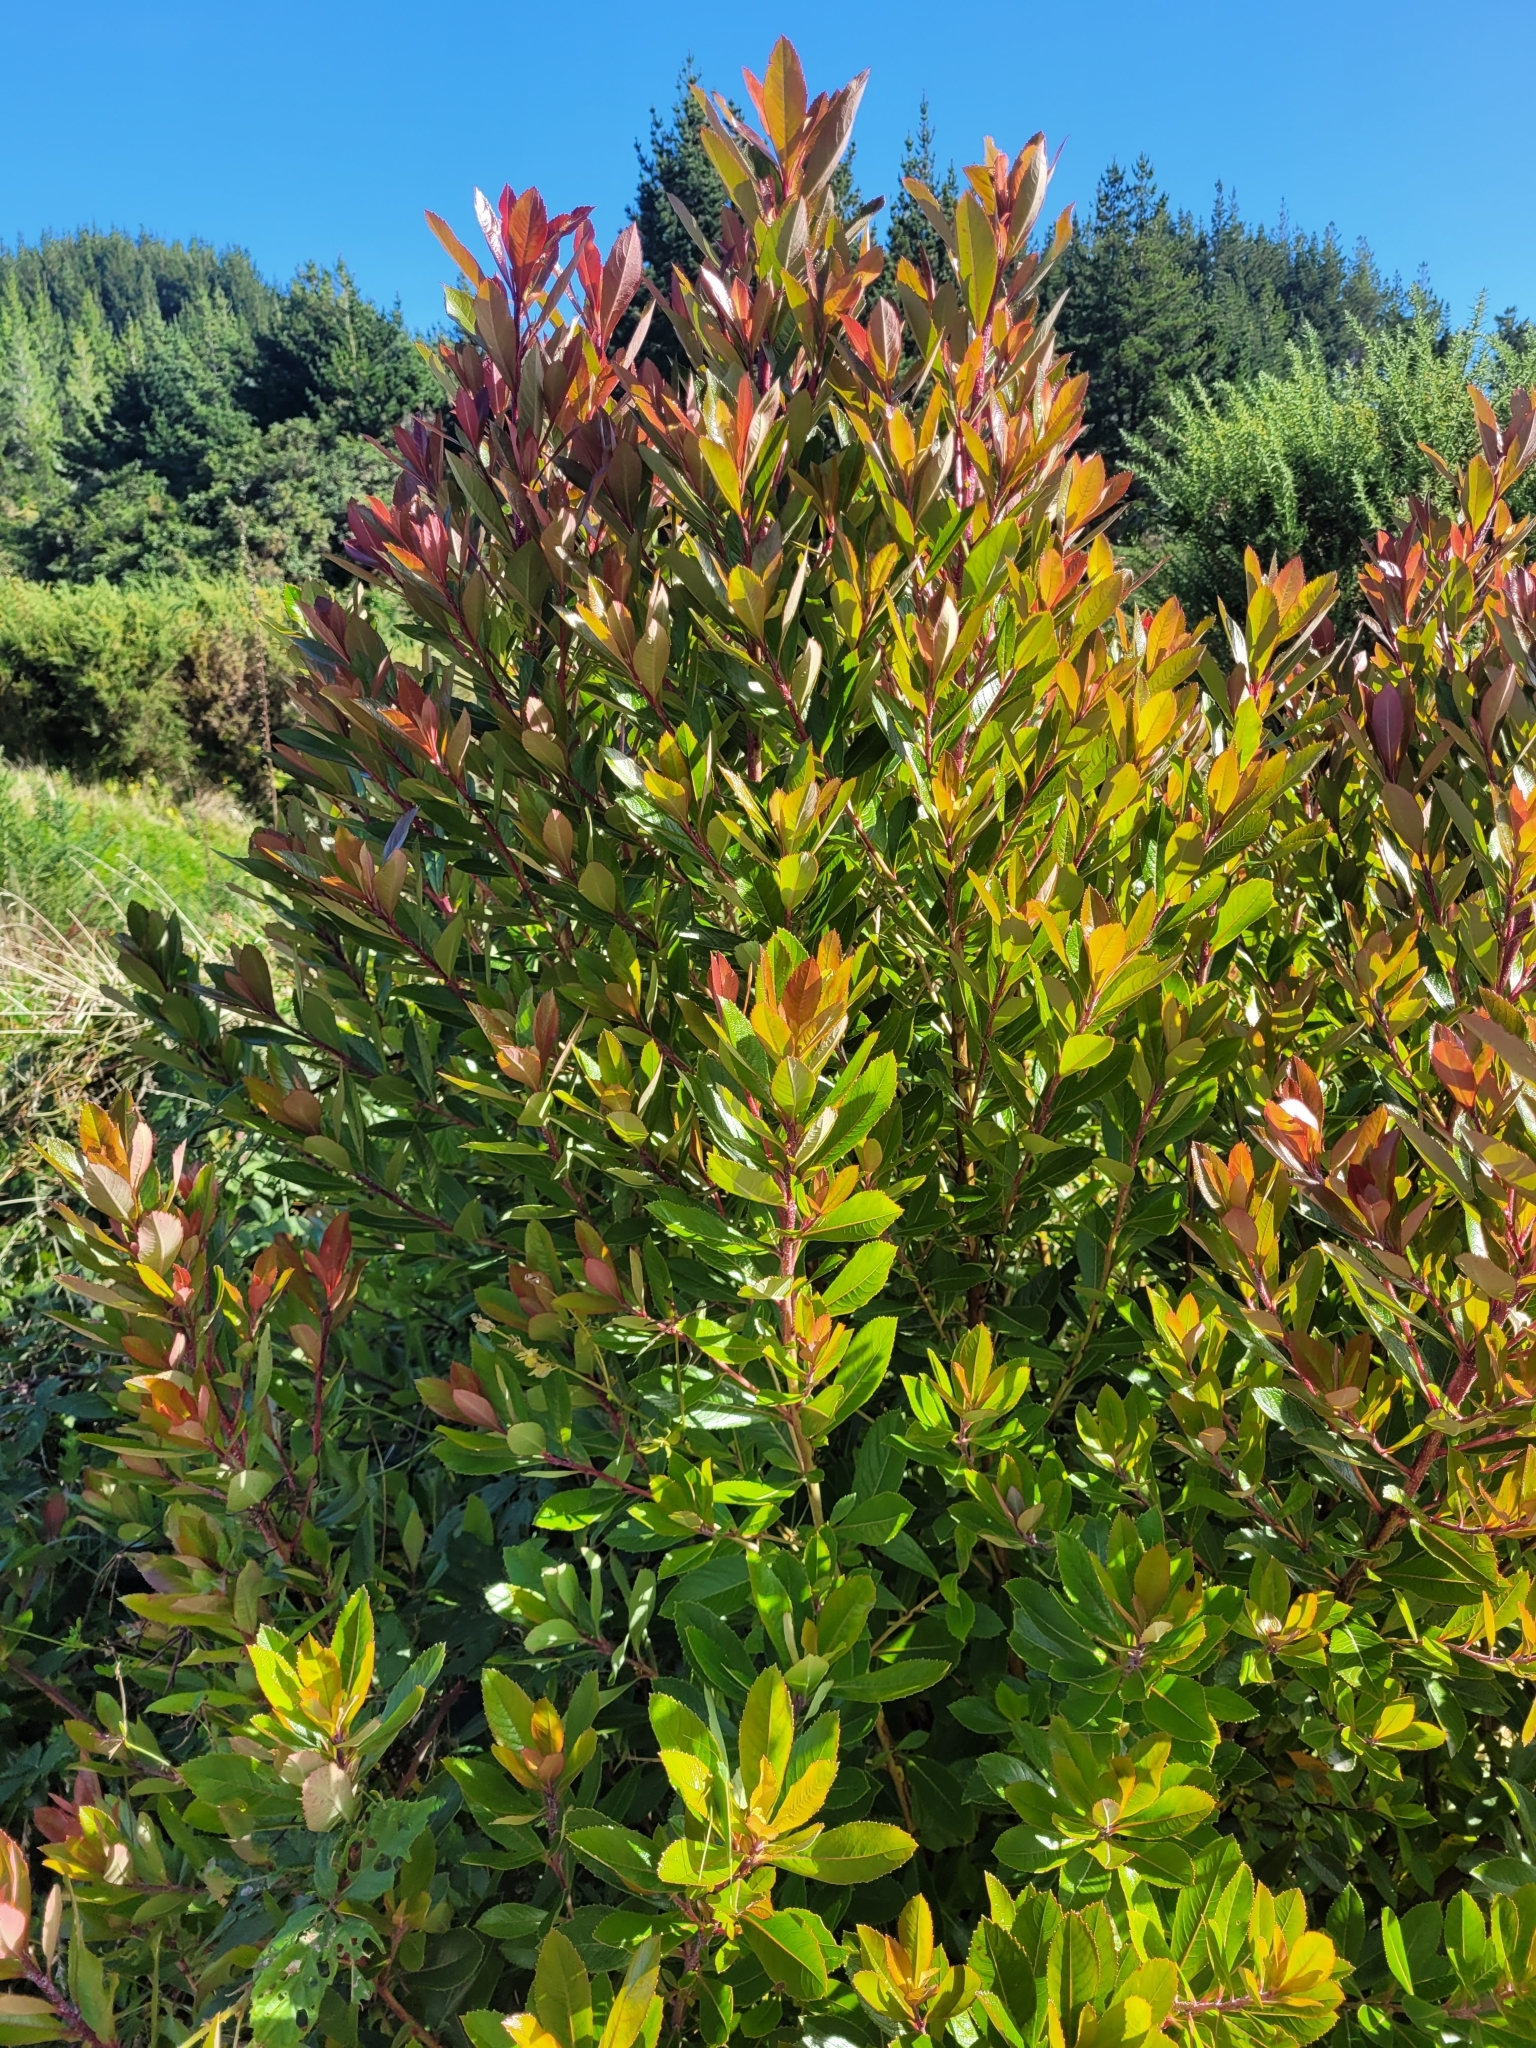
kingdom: Plantae
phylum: Tracheophyta
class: Magnoliopsida
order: Ericales
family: Ericaceae
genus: Arbutus
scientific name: Arbutus unedo
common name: Strawberry-tree
